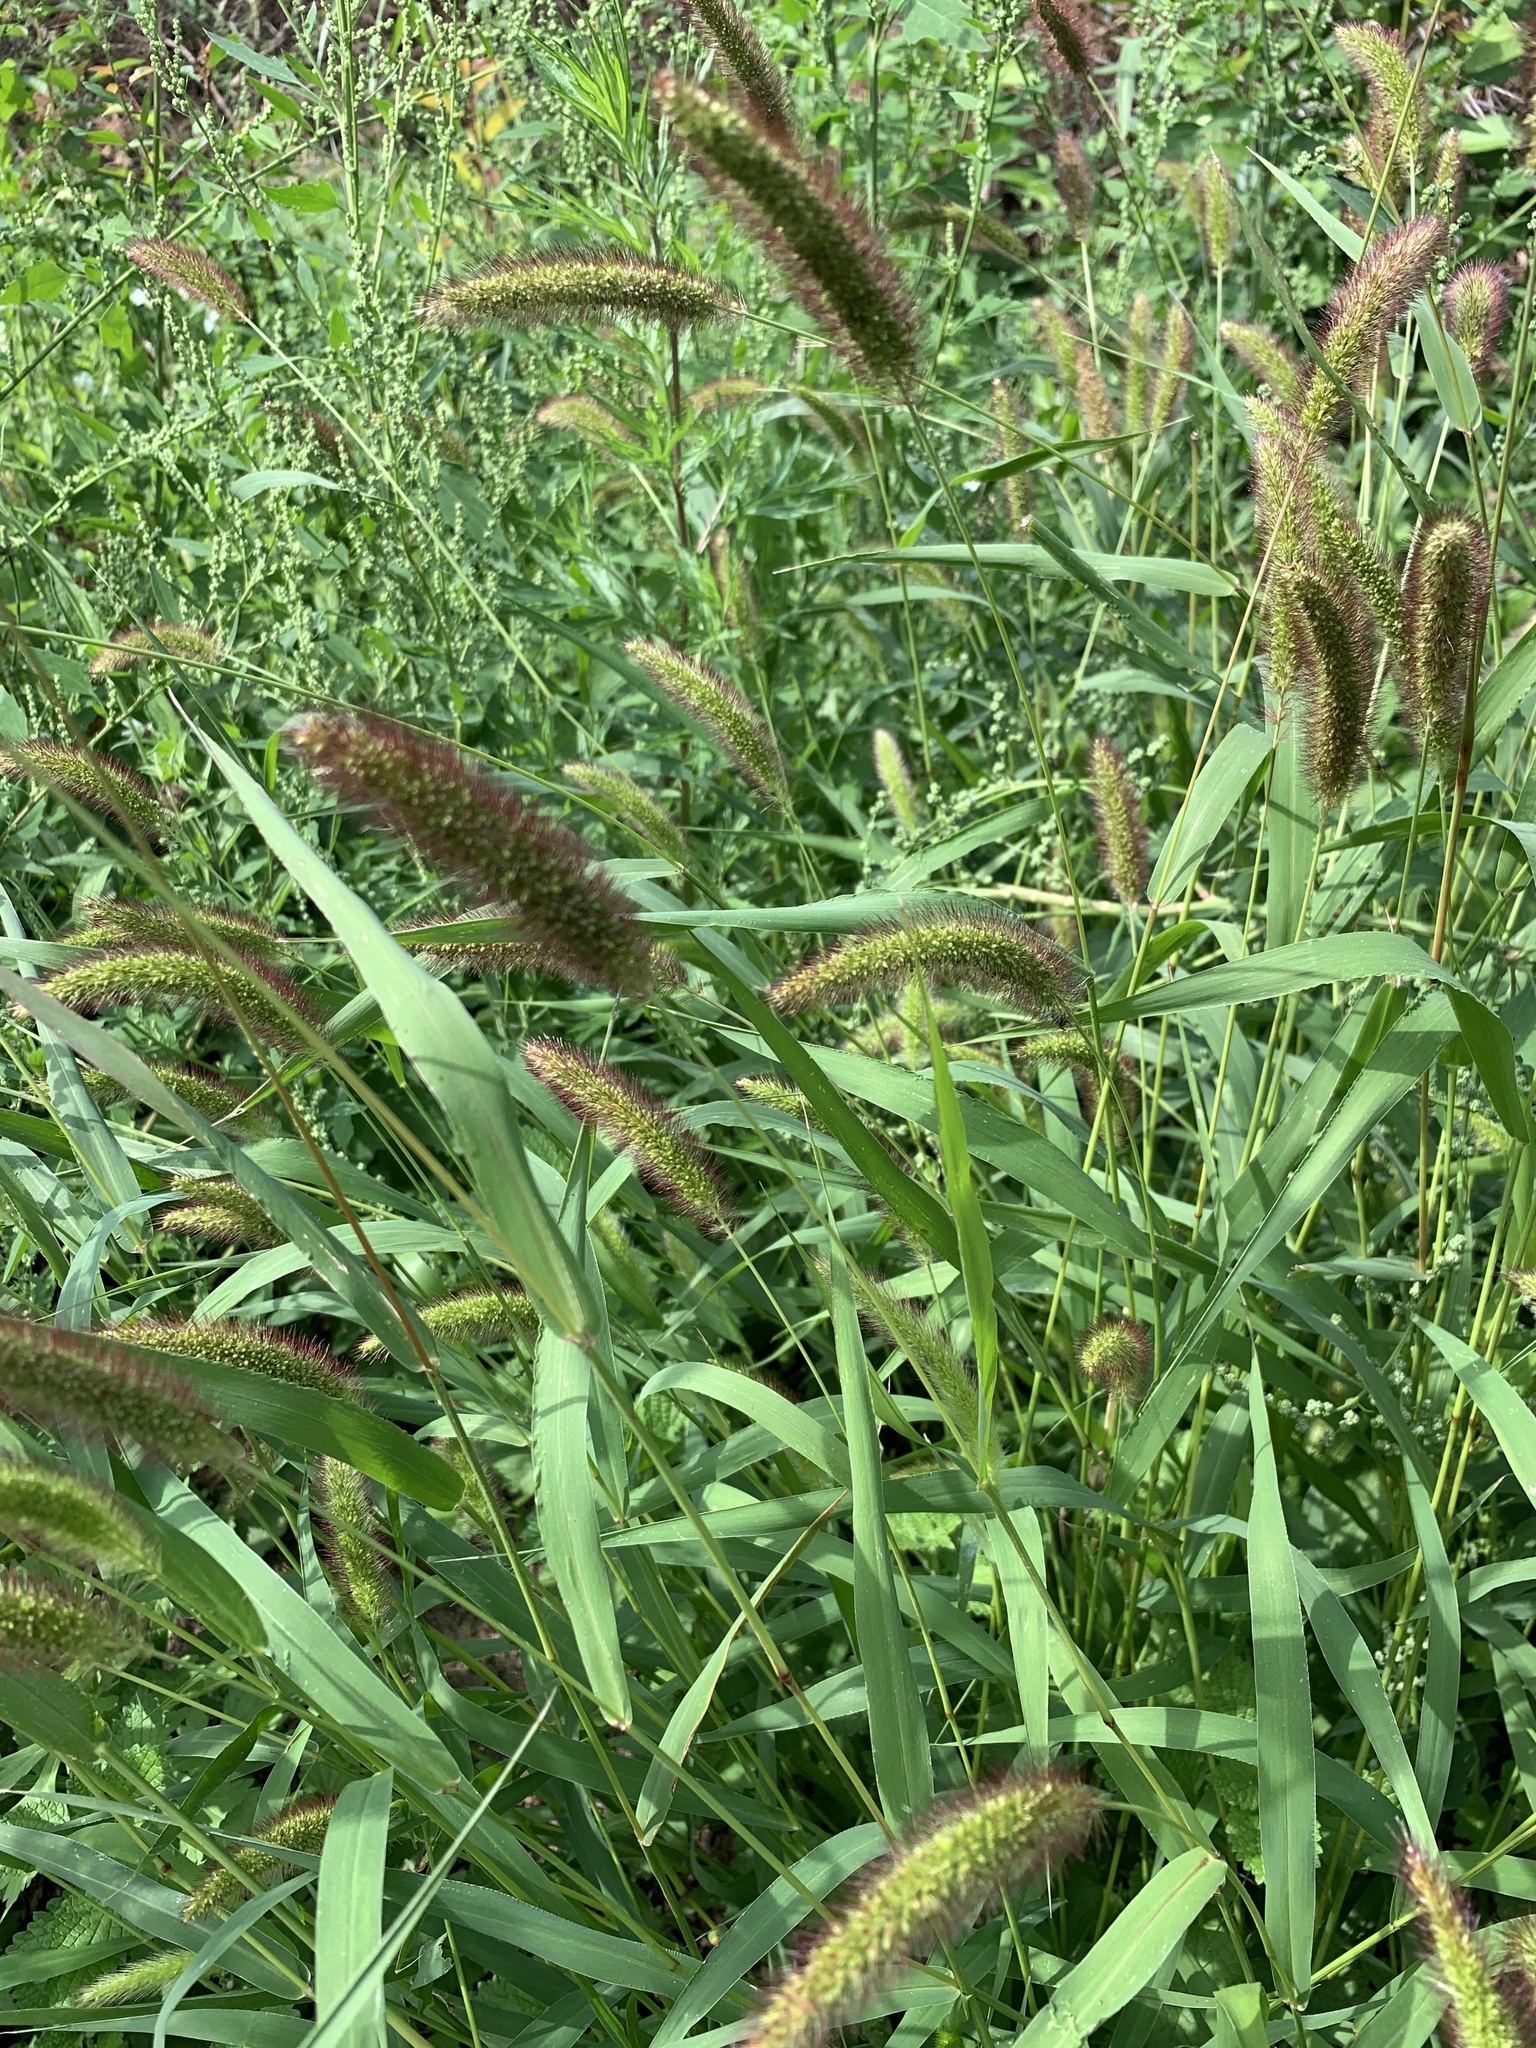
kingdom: Plantae
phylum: Tracheophyta
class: Liliopsida
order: Poales
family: Poaceae
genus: Setaria
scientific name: Setaria viridis
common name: Green bristlegrass
